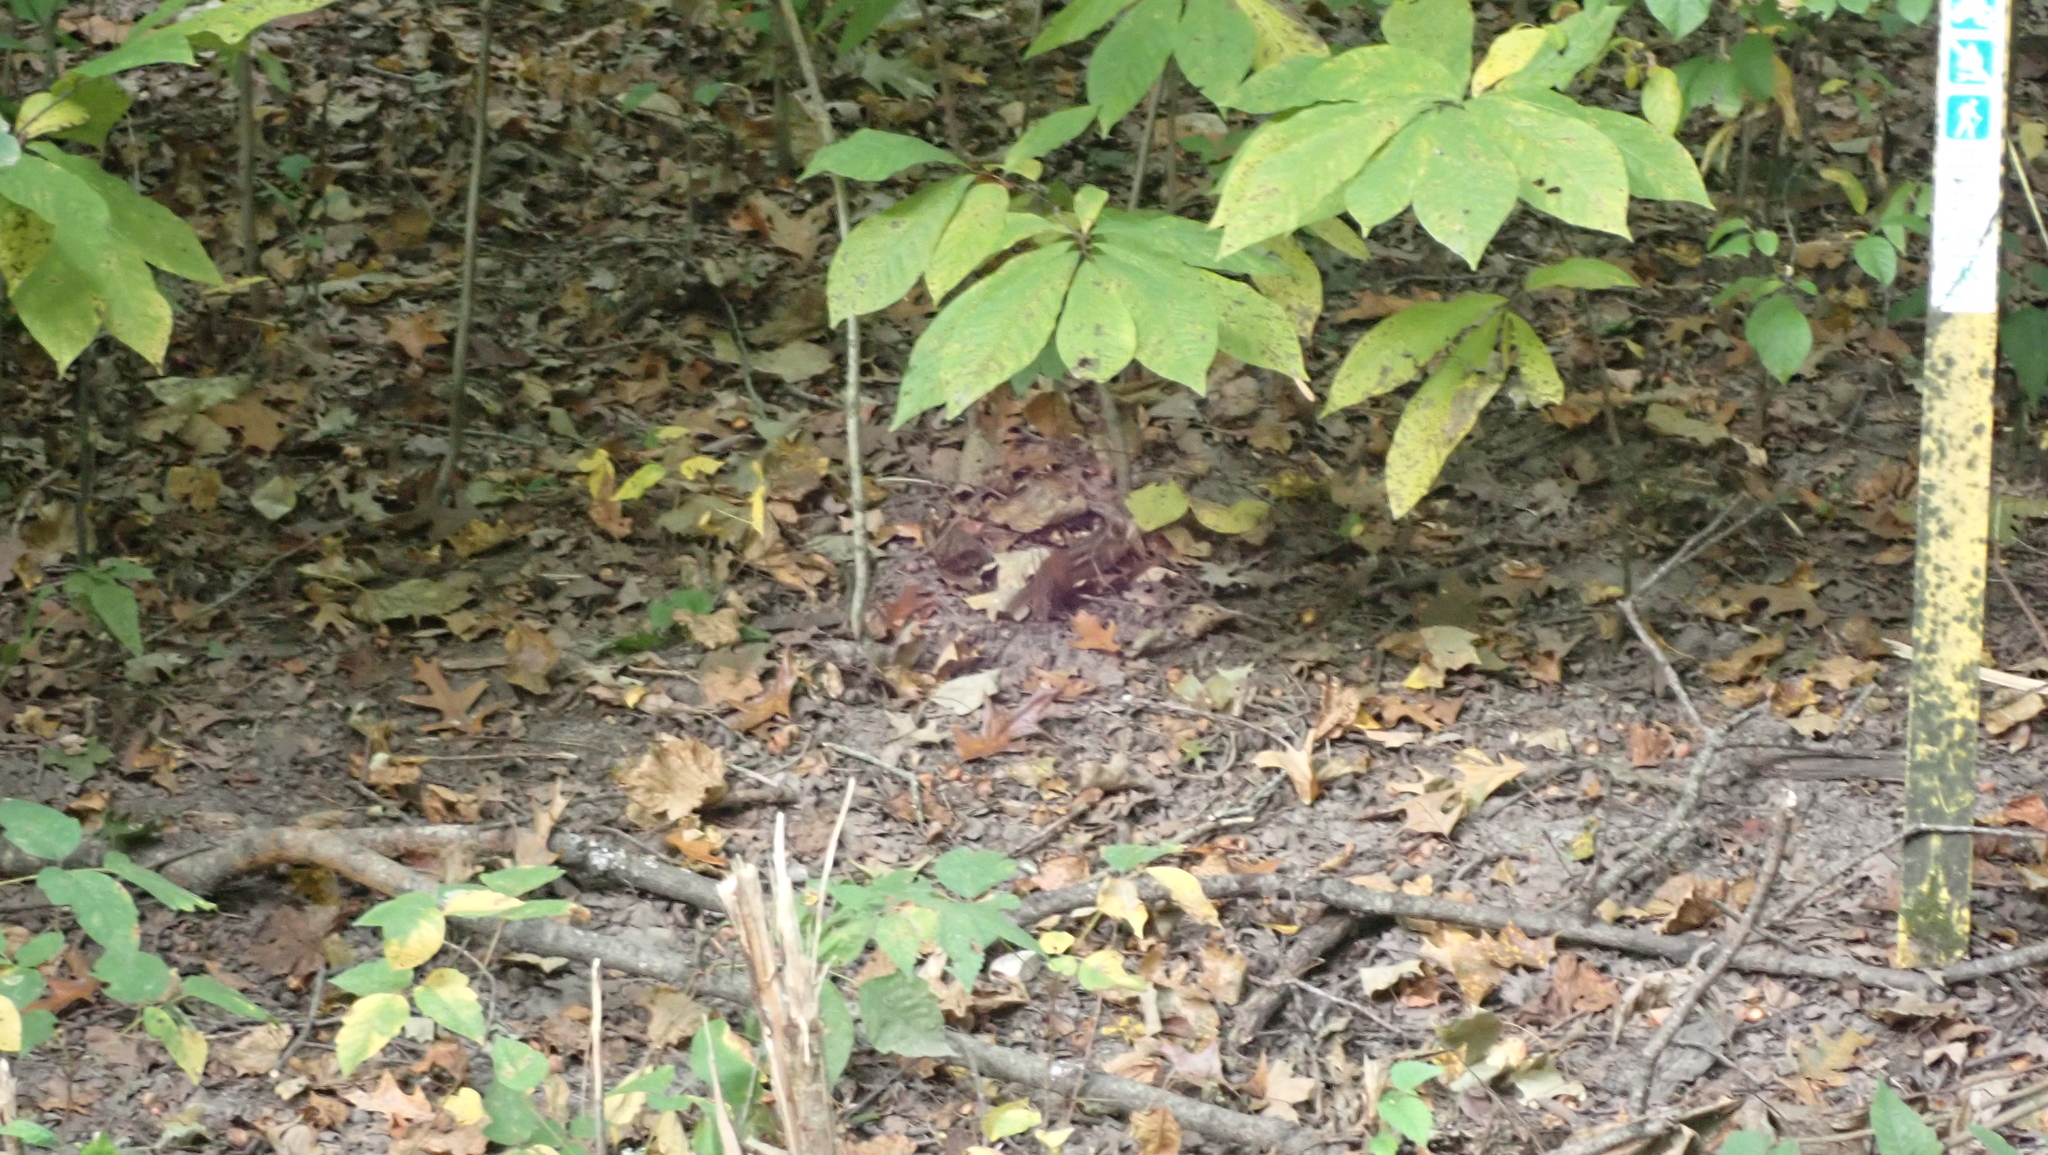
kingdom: Plantae
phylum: Tracheophyta
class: Magnoliopsida
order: Magnoliales
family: Annonaceae
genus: Asimina
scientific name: Asimina triloba
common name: Dog-banana
